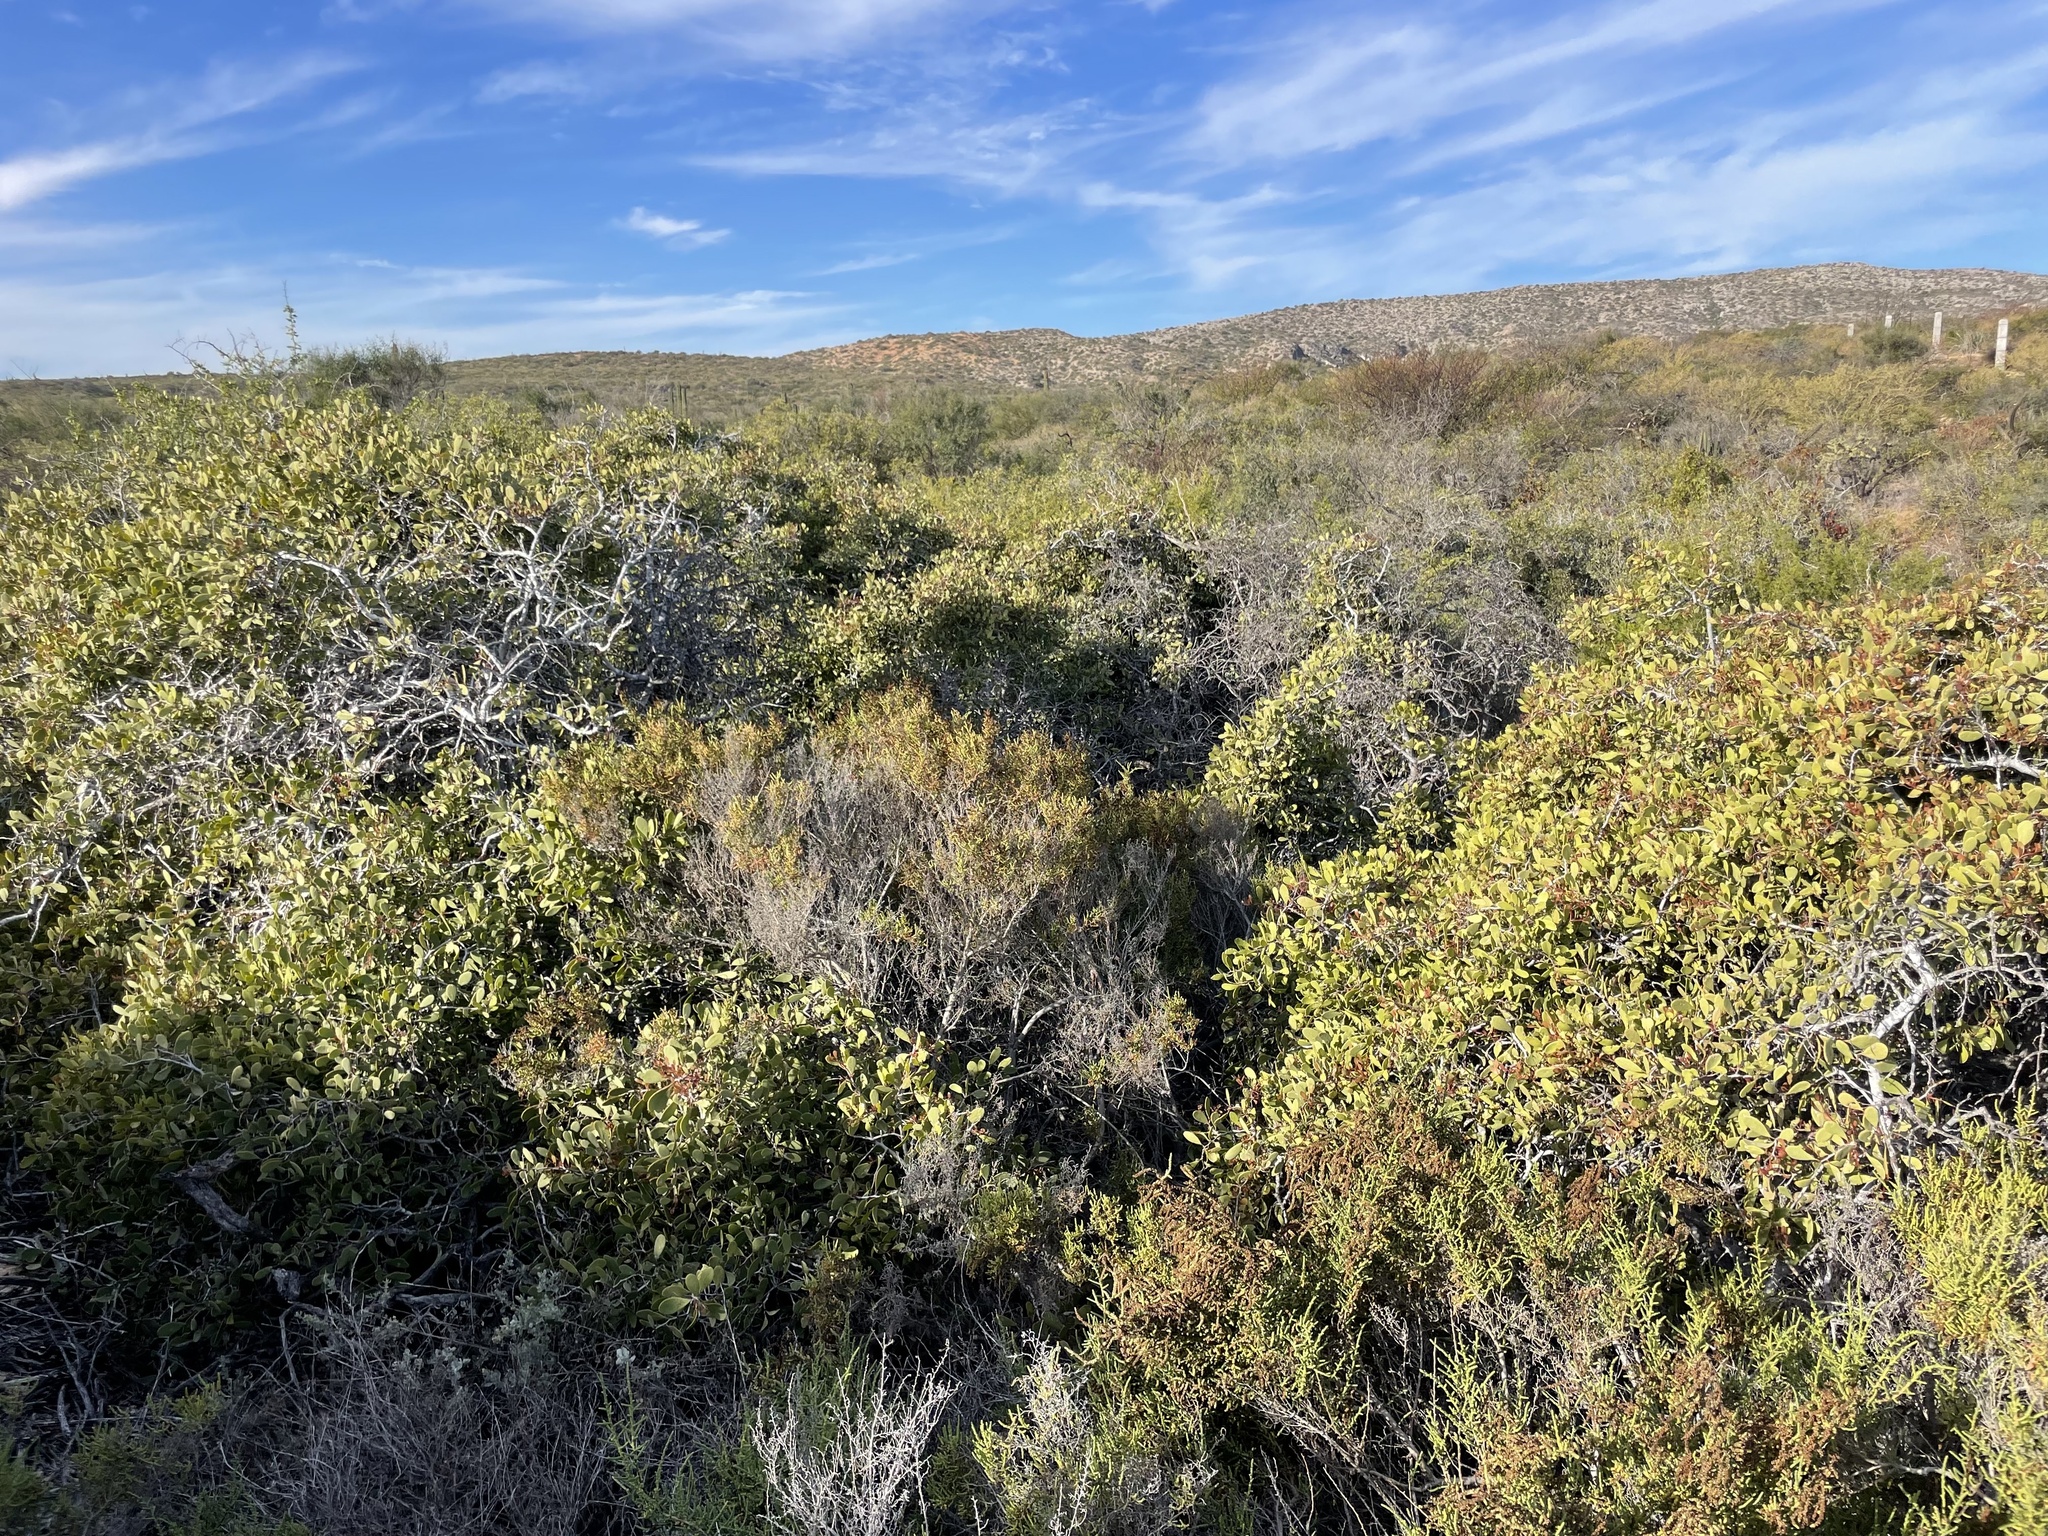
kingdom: Plantae
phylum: Tracheophyta
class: Magnoliopsida
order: Caryophyllales
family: Amaranthaceae
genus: Allenrolfea
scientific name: Allenrolfea occidentalis
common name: Iodine-bush
